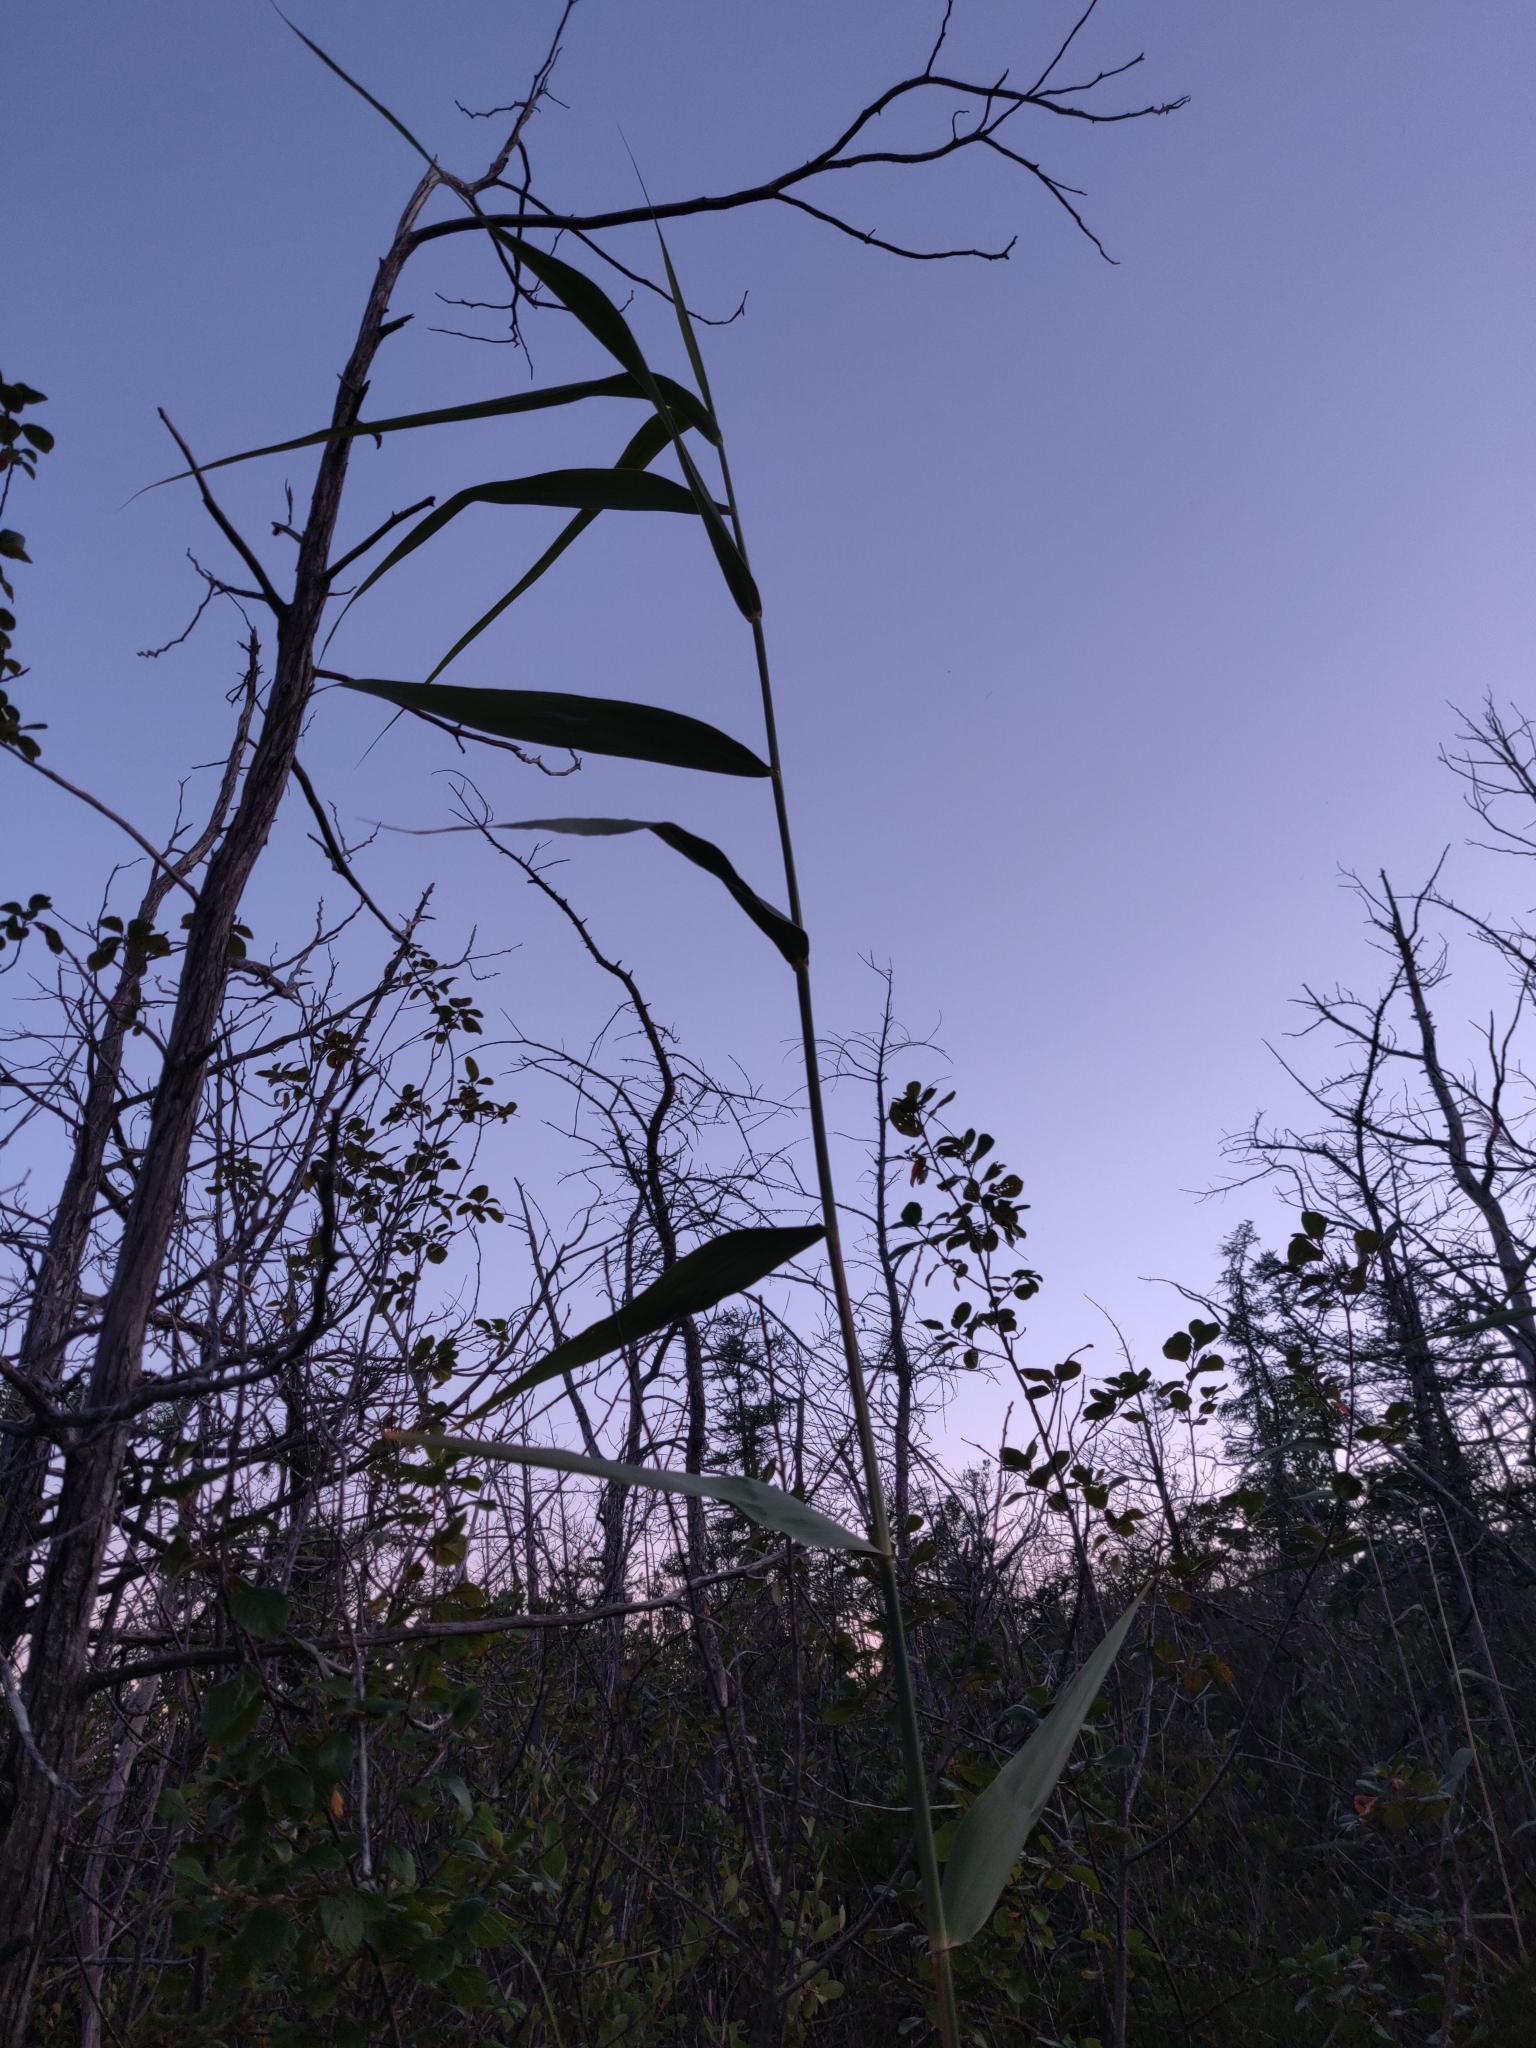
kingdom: Plantae
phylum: Tracheophyta
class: Liliopsida
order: Poales
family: Poaceae
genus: Phragmites
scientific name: Phragmites australis
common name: Common reed
